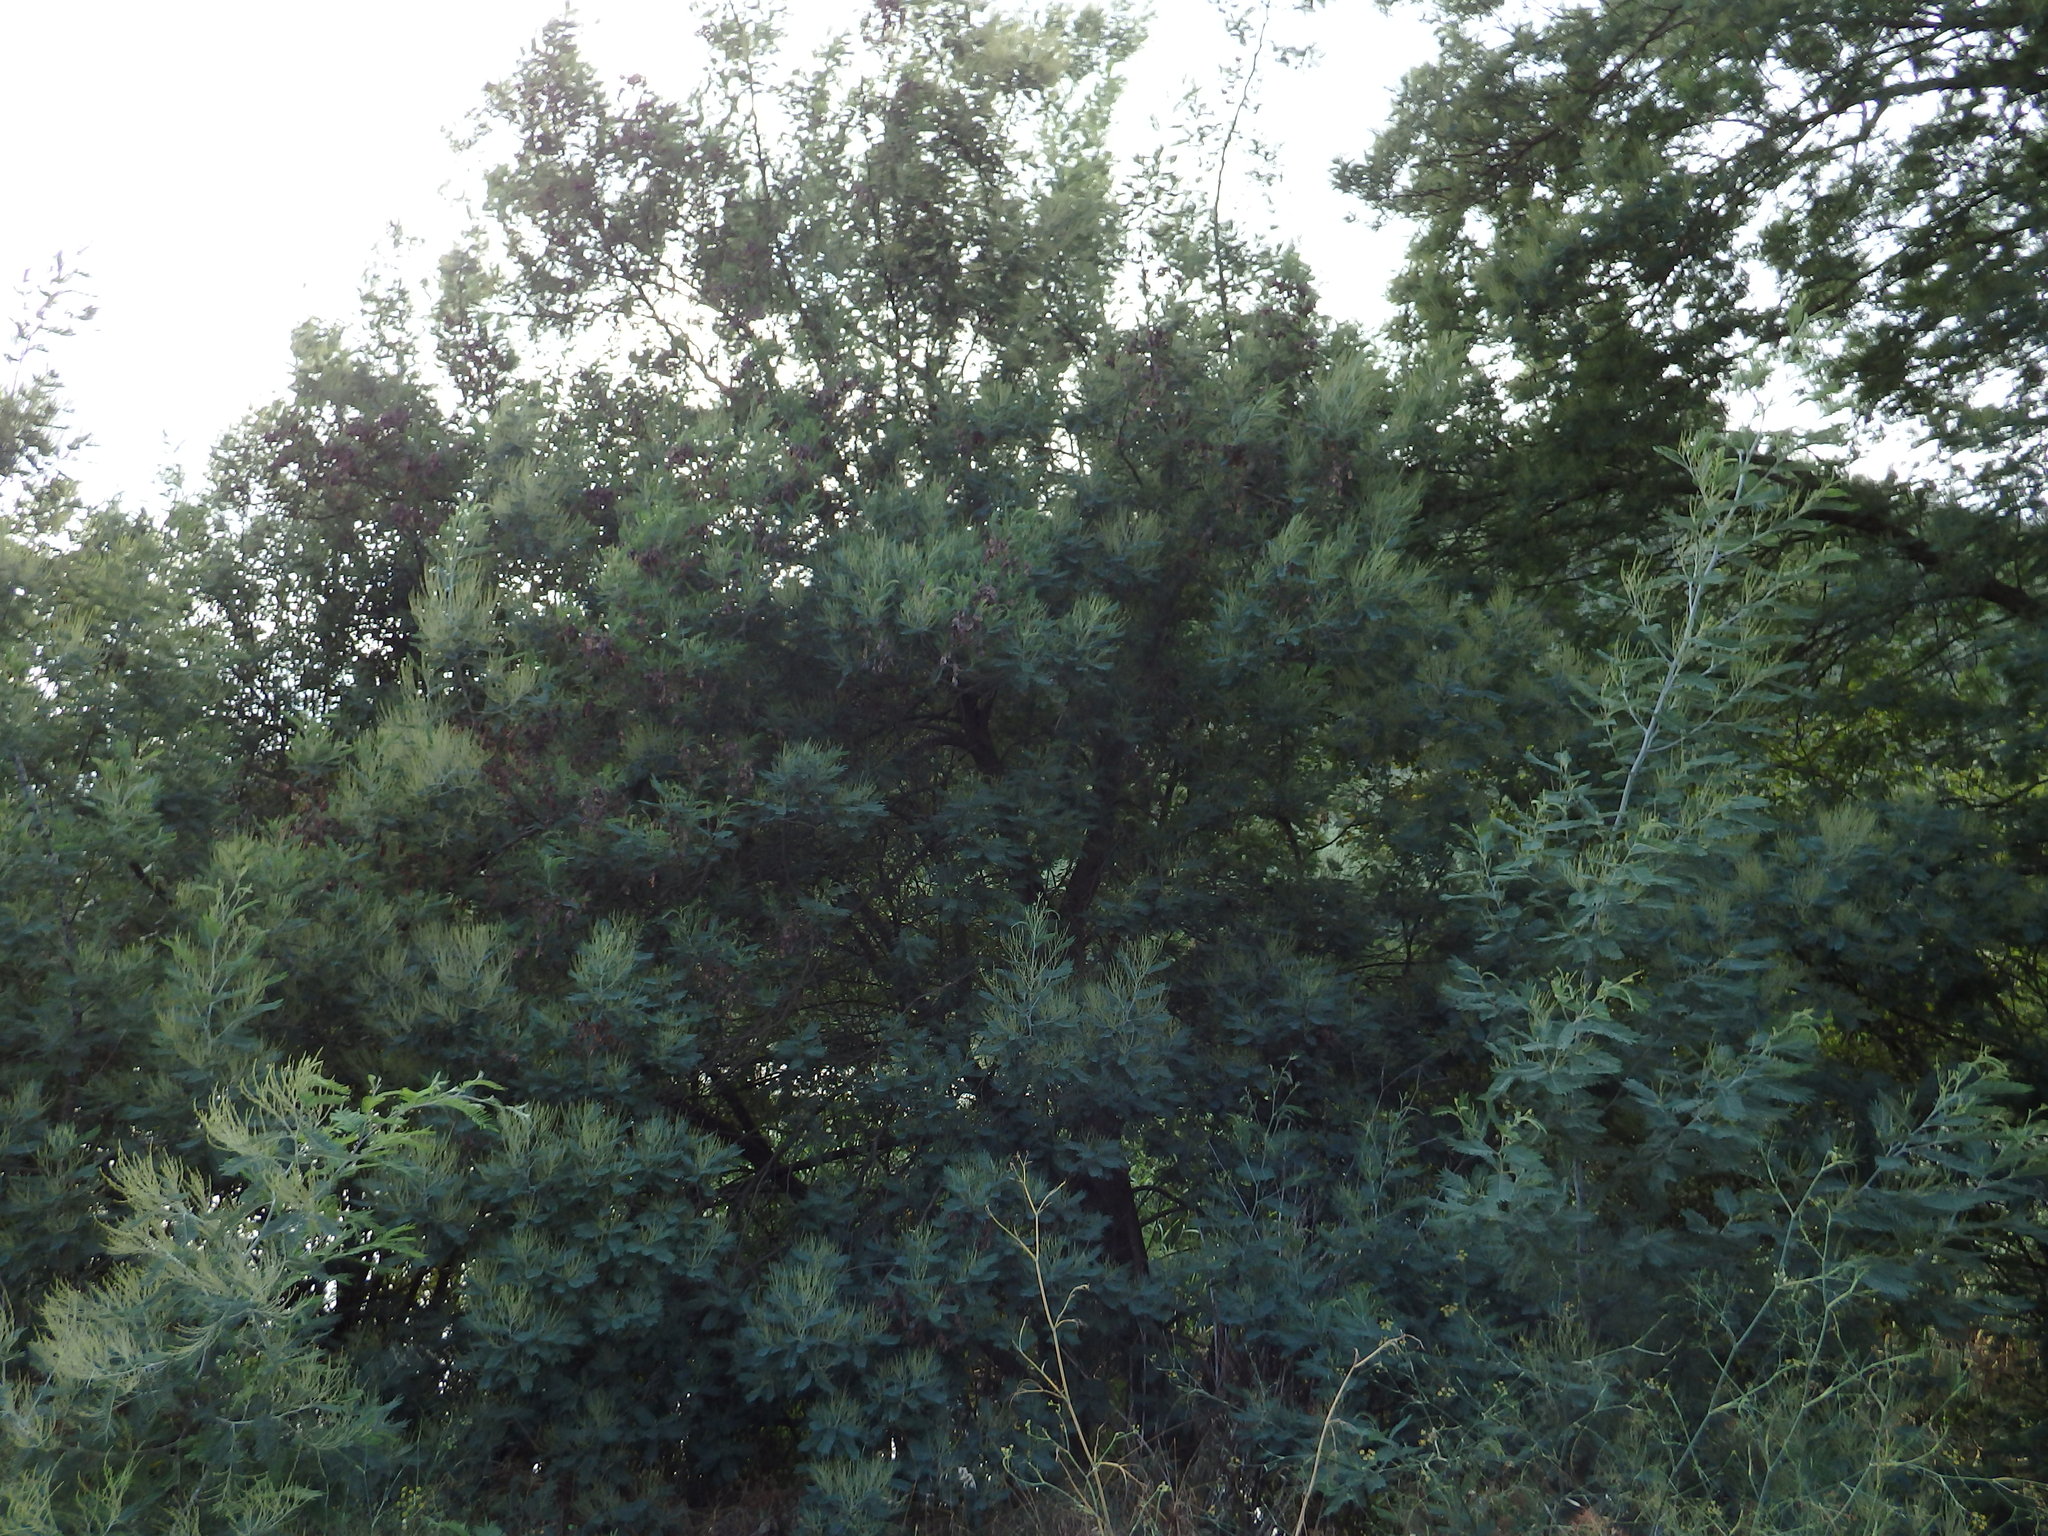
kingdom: Plantae
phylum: Tracheophyta
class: Magnoliopsida
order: Fabales
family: Fabaceae
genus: Acacia
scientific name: Acacia dealbata
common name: Silver wattle
